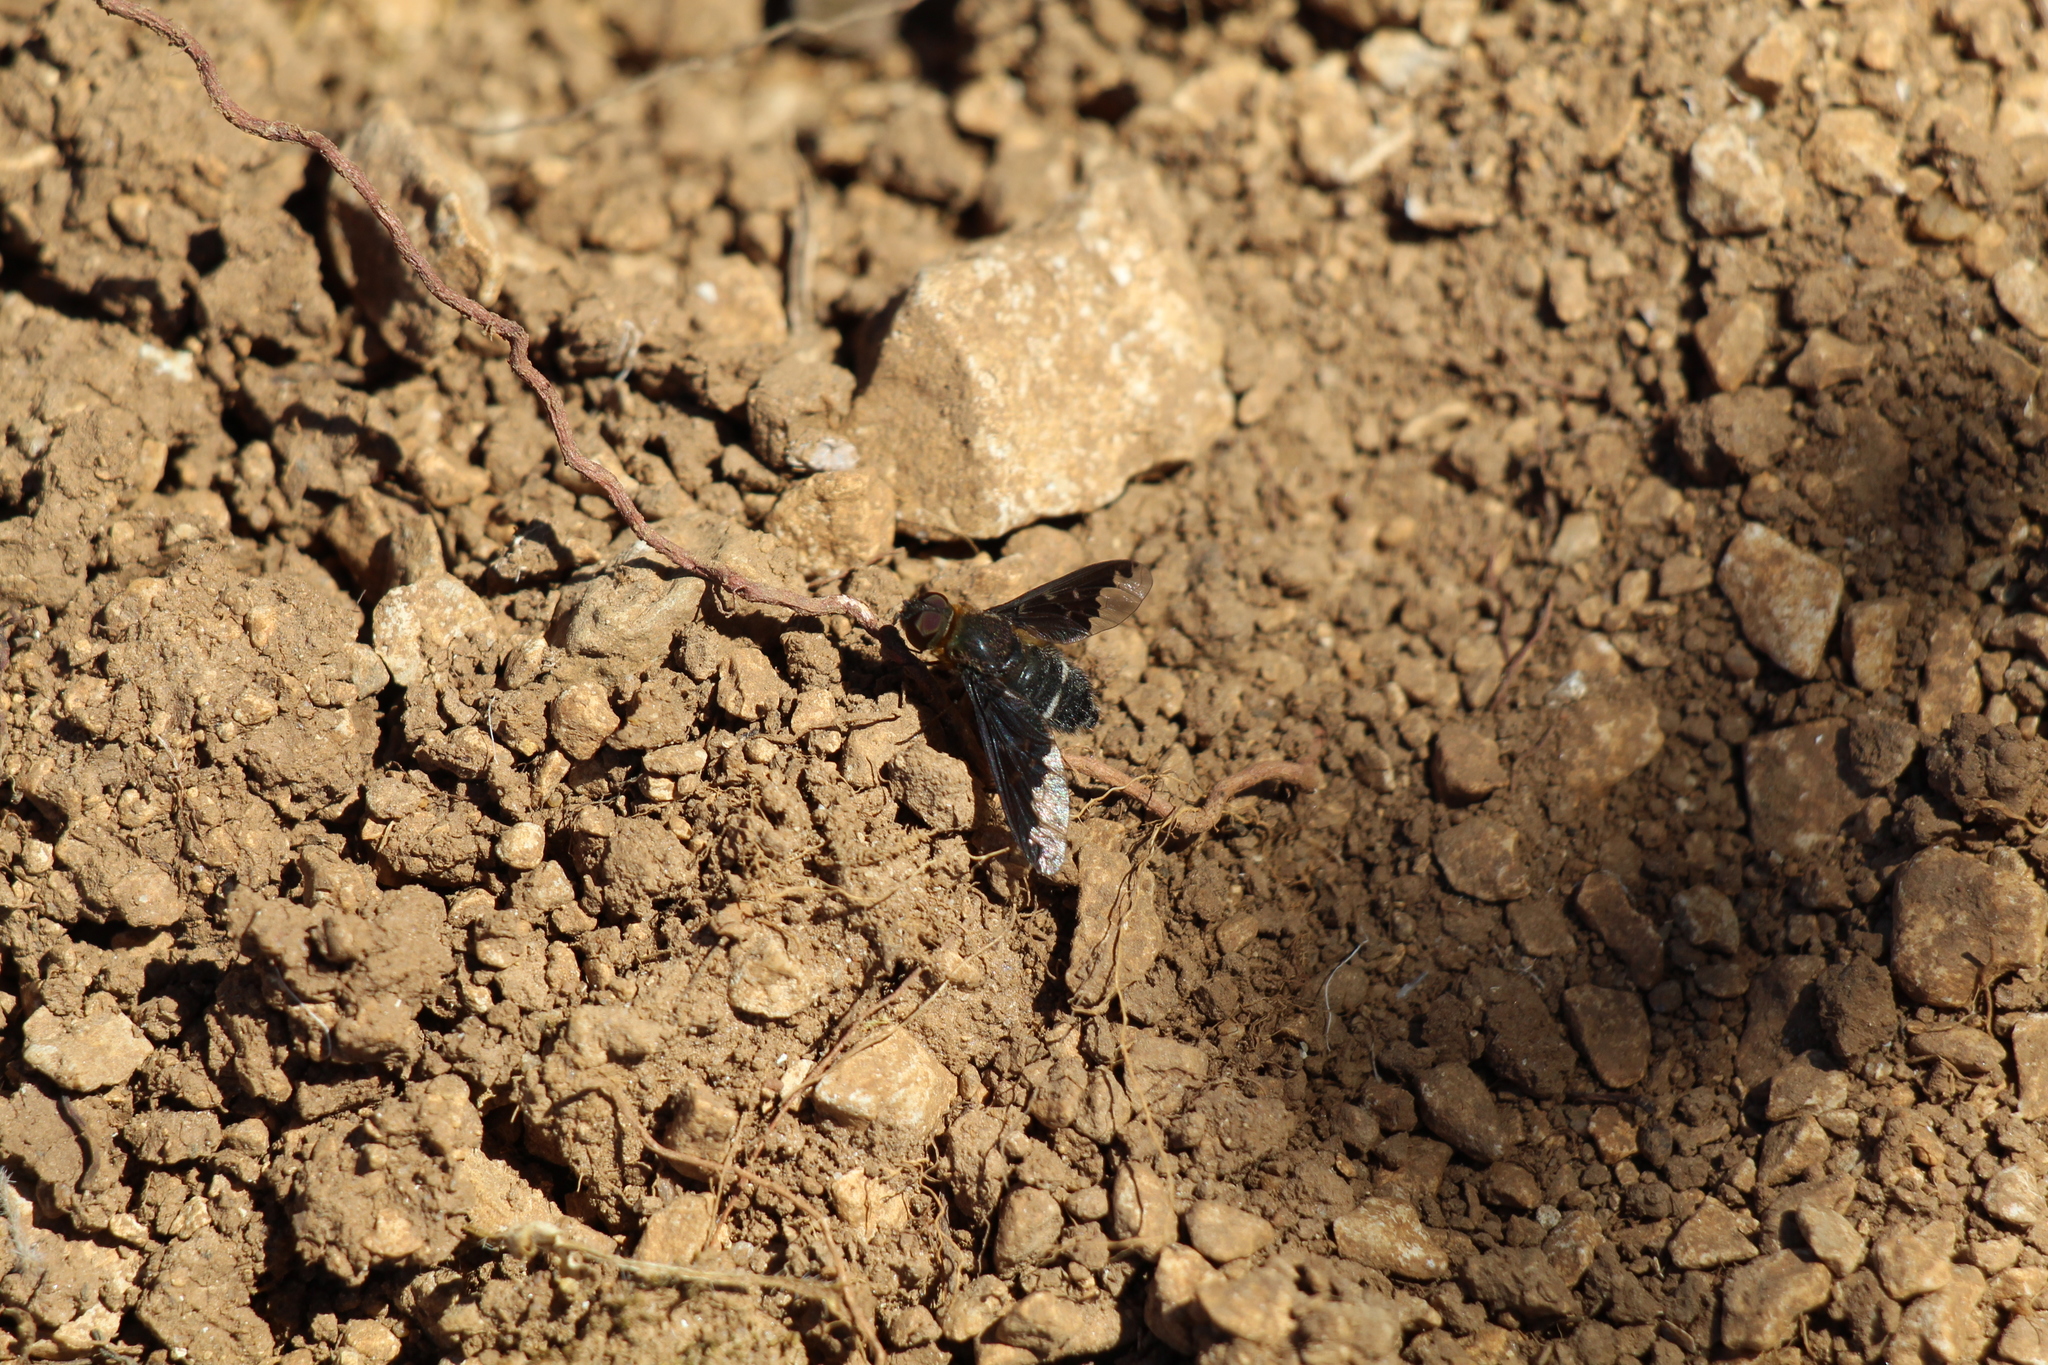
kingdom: Animalia
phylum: Arthropoda
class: Insecta
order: Diptera
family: Bombyliidae
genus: Hemipenthes
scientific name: Hemipenthes velutina
